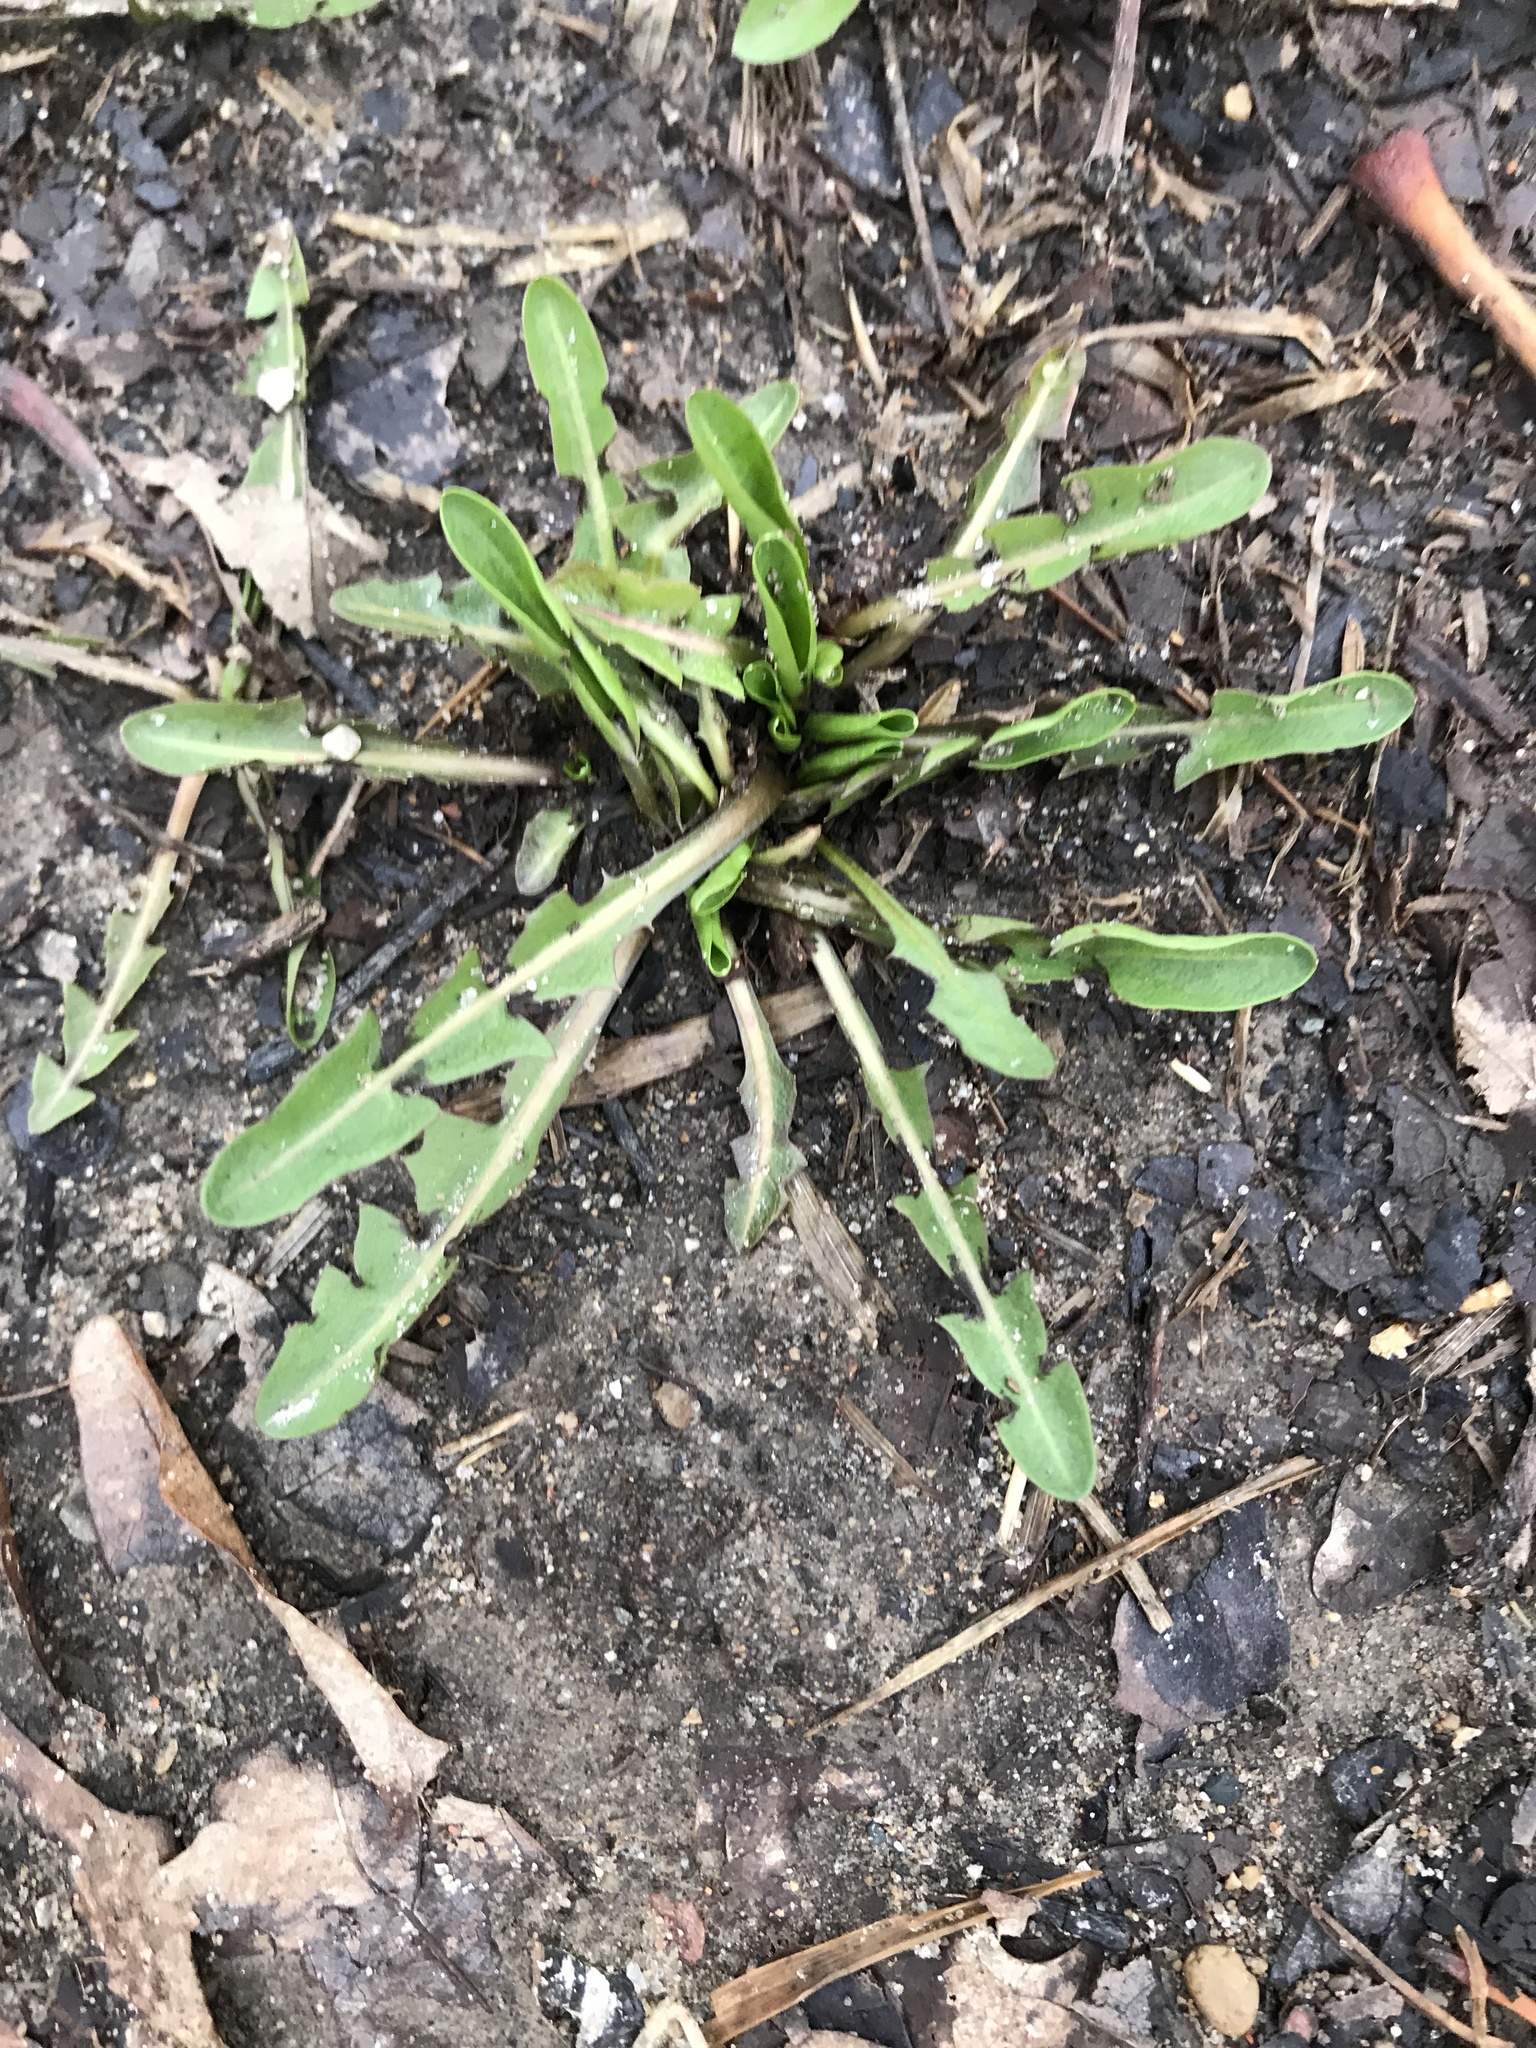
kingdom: Plantae
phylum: Tracheophyta
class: Magnoliopsida
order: Asterales
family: Asteraceae
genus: Taraxacum
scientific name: Taraxacum officinale
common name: Common dandelion
